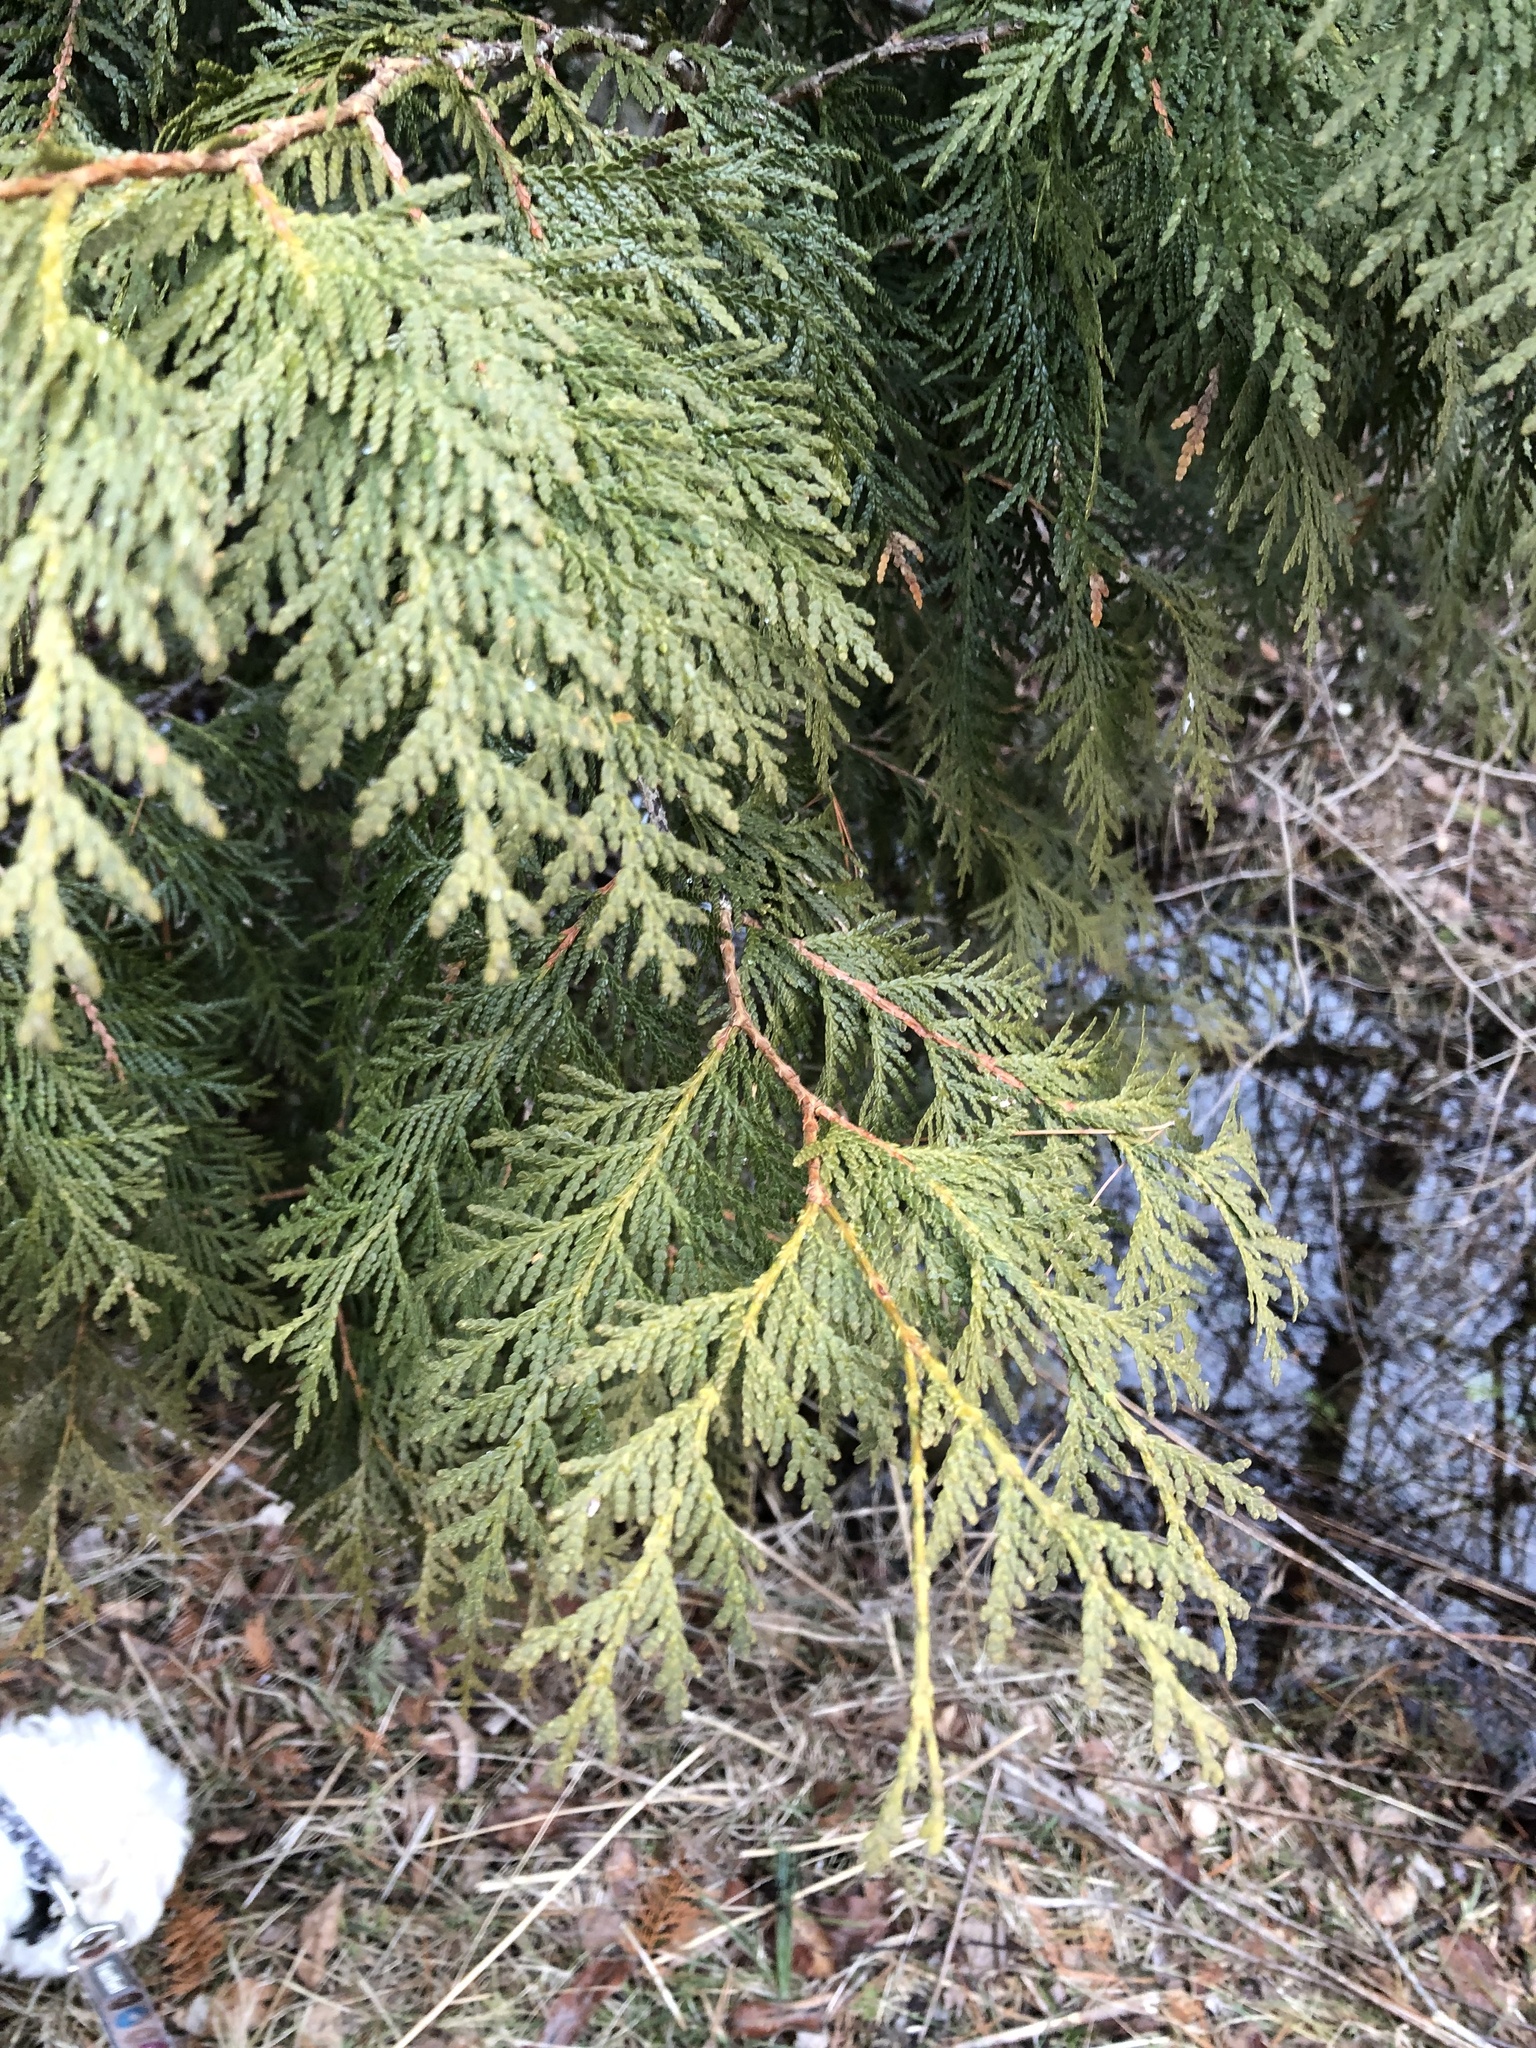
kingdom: Plantae
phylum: Tracheophyta
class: Pinopsida
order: Pinales
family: Cupressaceae
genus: Thuja
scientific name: Thuja occidentalis
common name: Northern white-cedar
